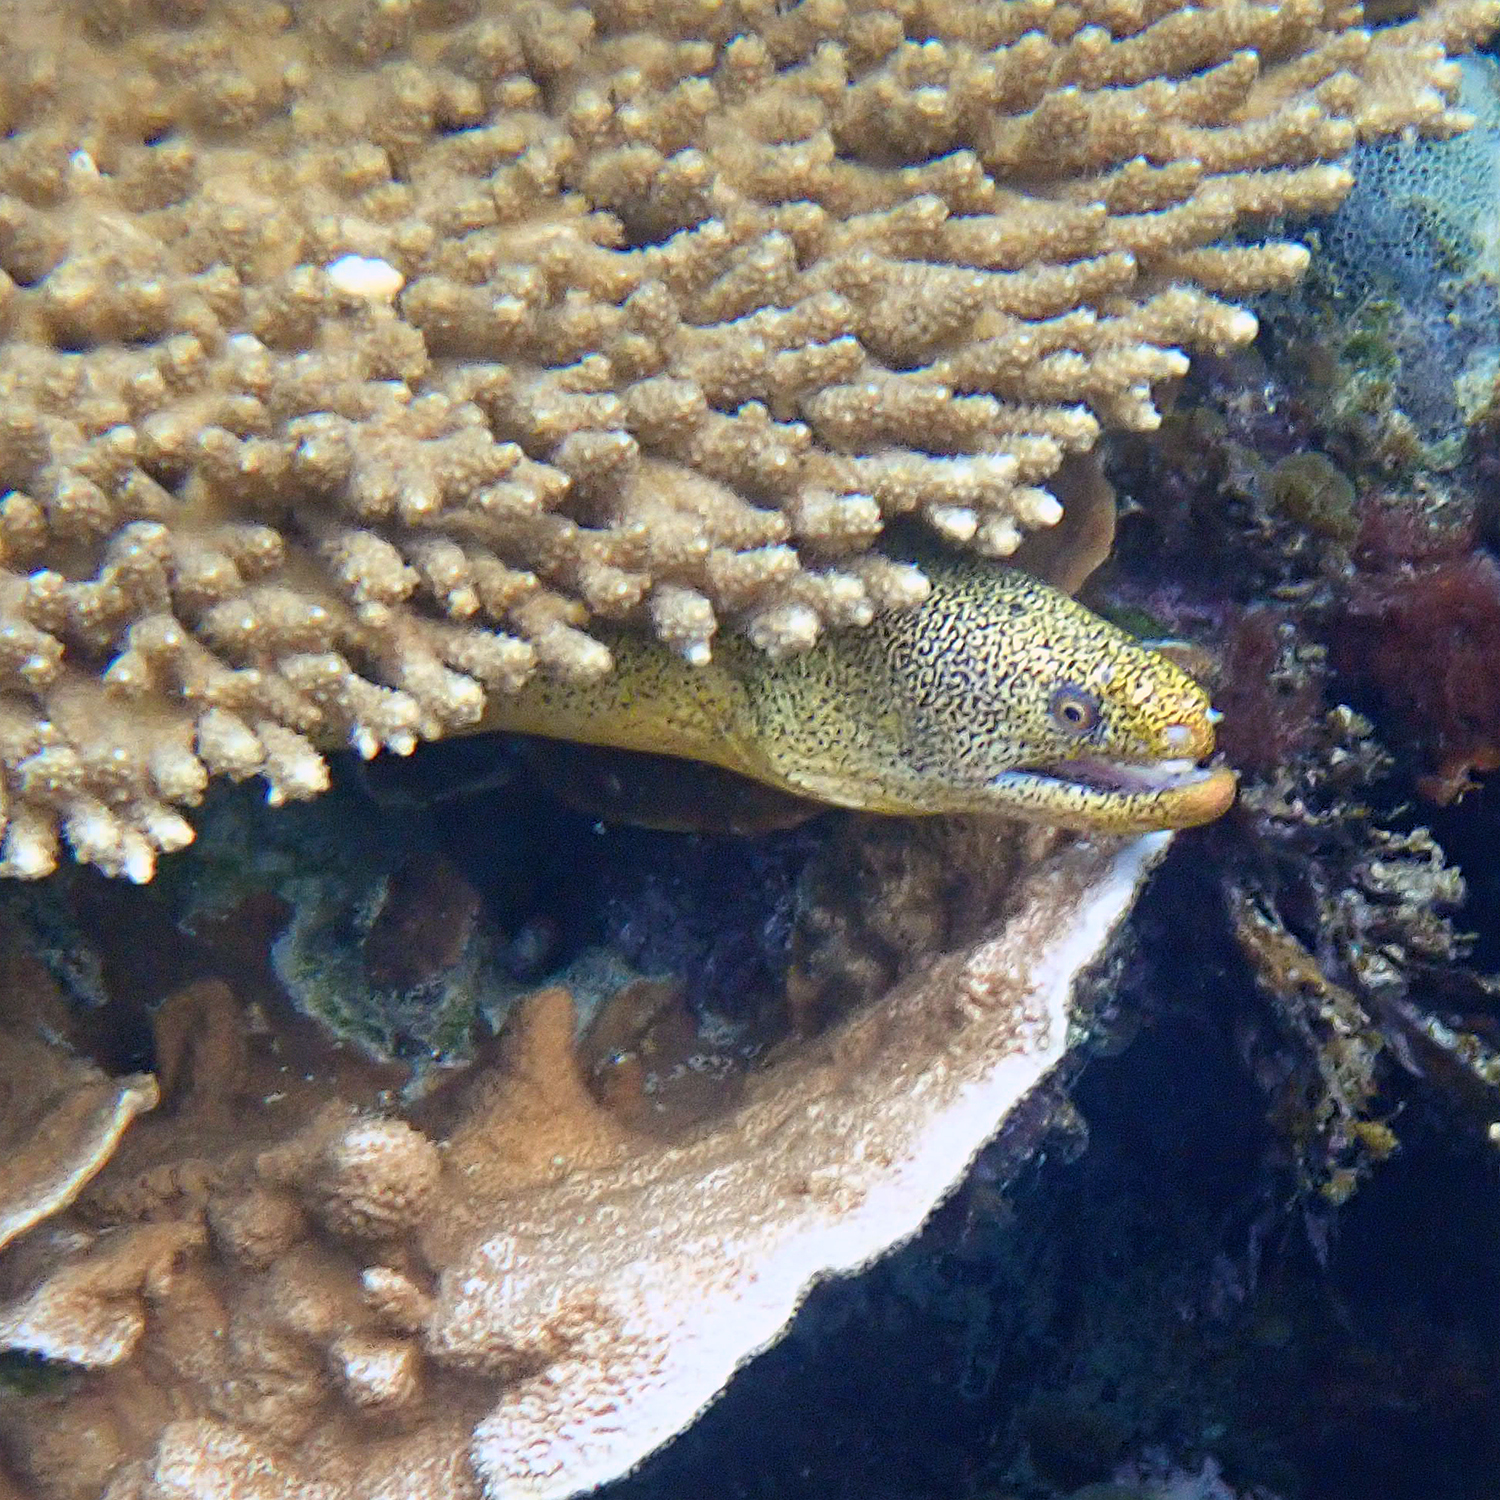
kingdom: Animalia
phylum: Chordata
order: Anguilliformes
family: Muraenidae
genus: Gymnothorax
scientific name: Gymnothorax eurostus
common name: Stout moray
